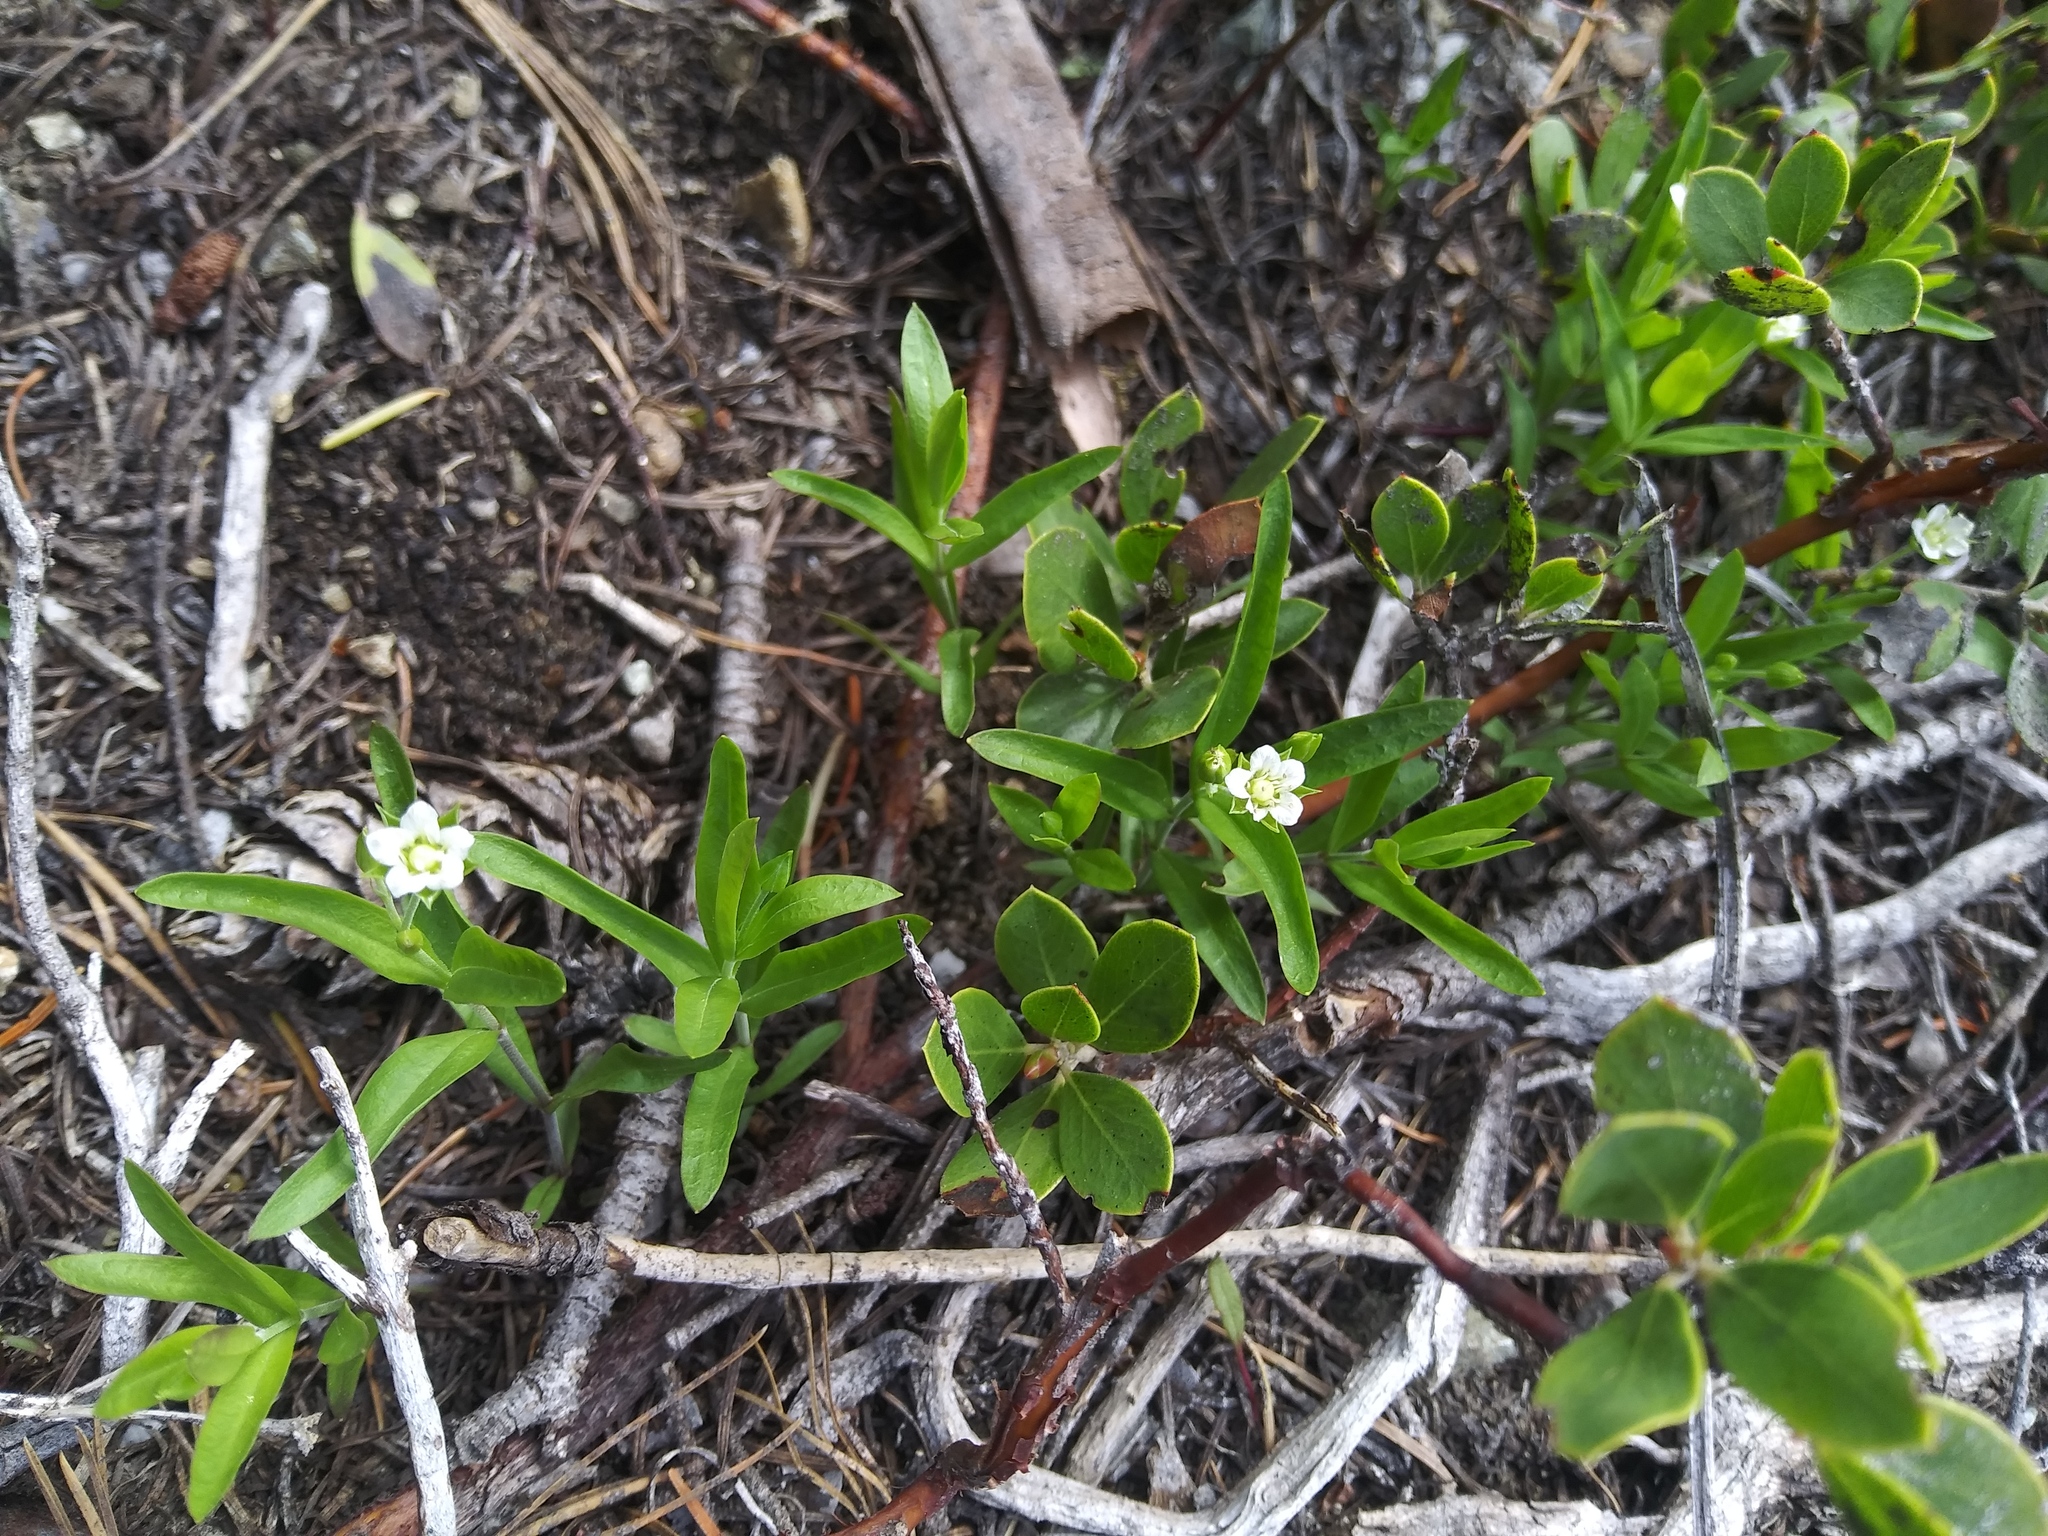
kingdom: Plantae
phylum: Tracheophyta
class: Magnoliopsida
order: Caryophyllales
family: Caryophyllaceae
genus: Moehringia
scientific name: Moehringia macrophylla
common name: Big-leaf sandwort
